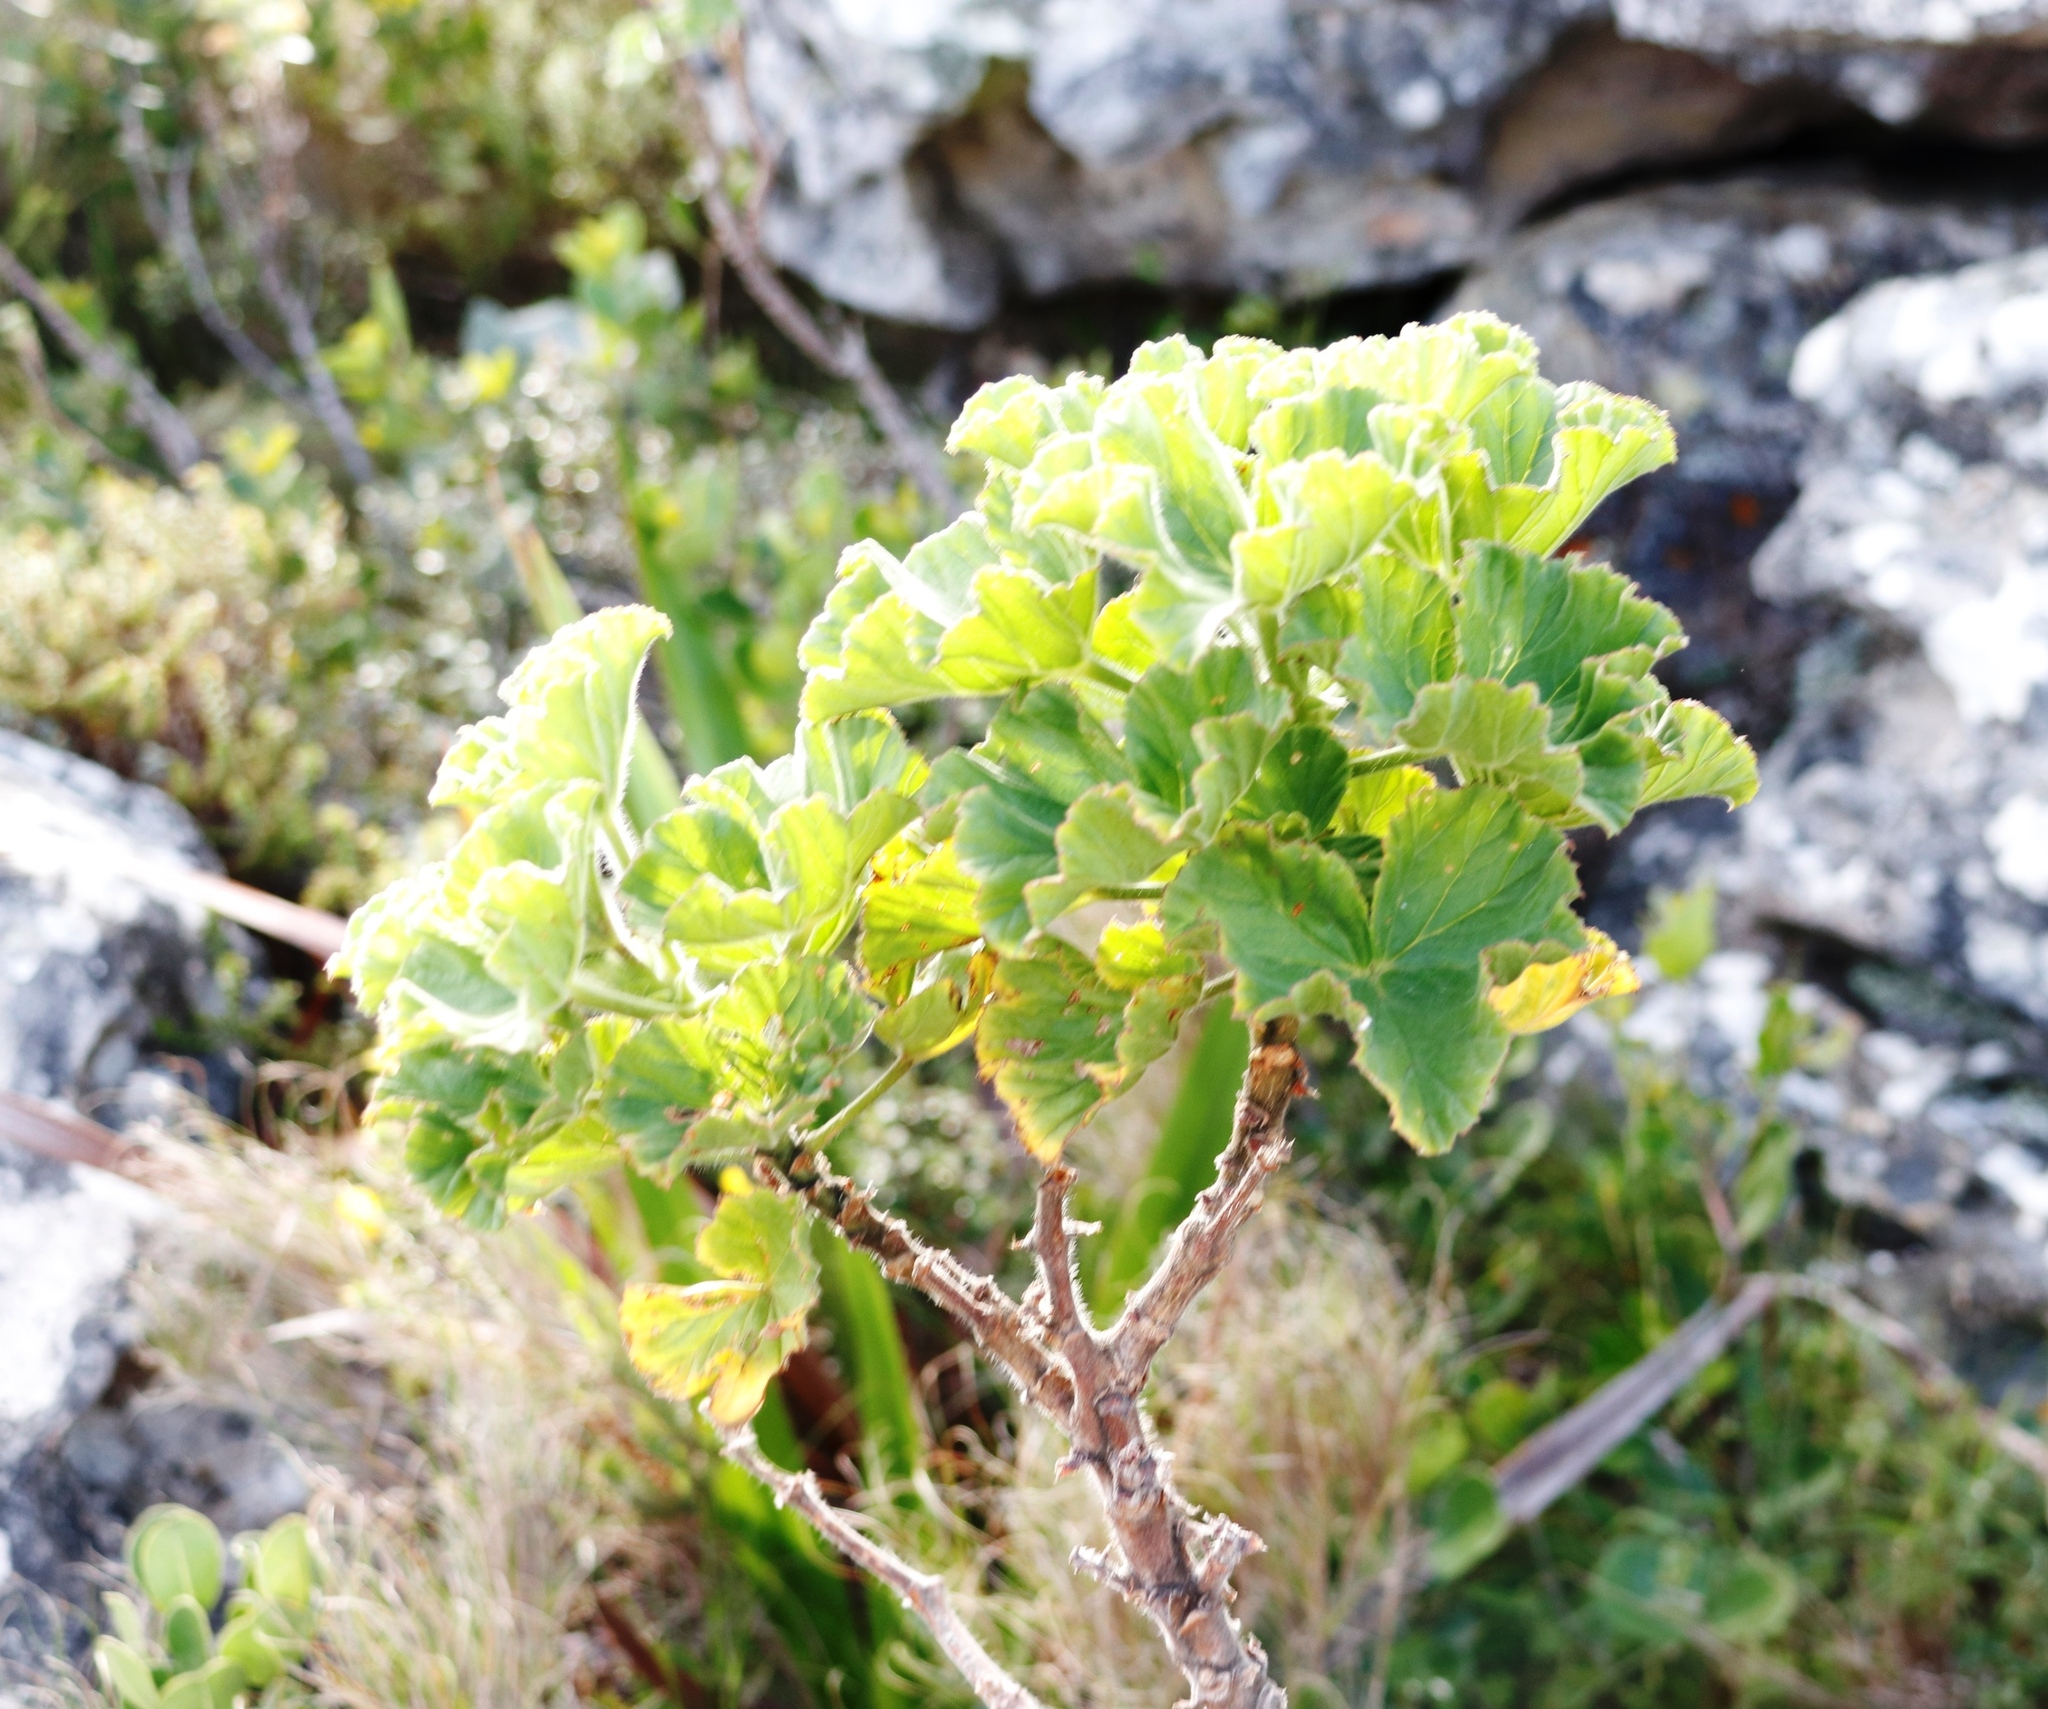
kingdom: Plantae
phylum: Tracheophyta
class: Magnoliopsida
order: Geraniales
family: Geraniaceae
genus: Pelargonium
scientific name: Pelargonium cucullatum
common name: Tree pelargonium
